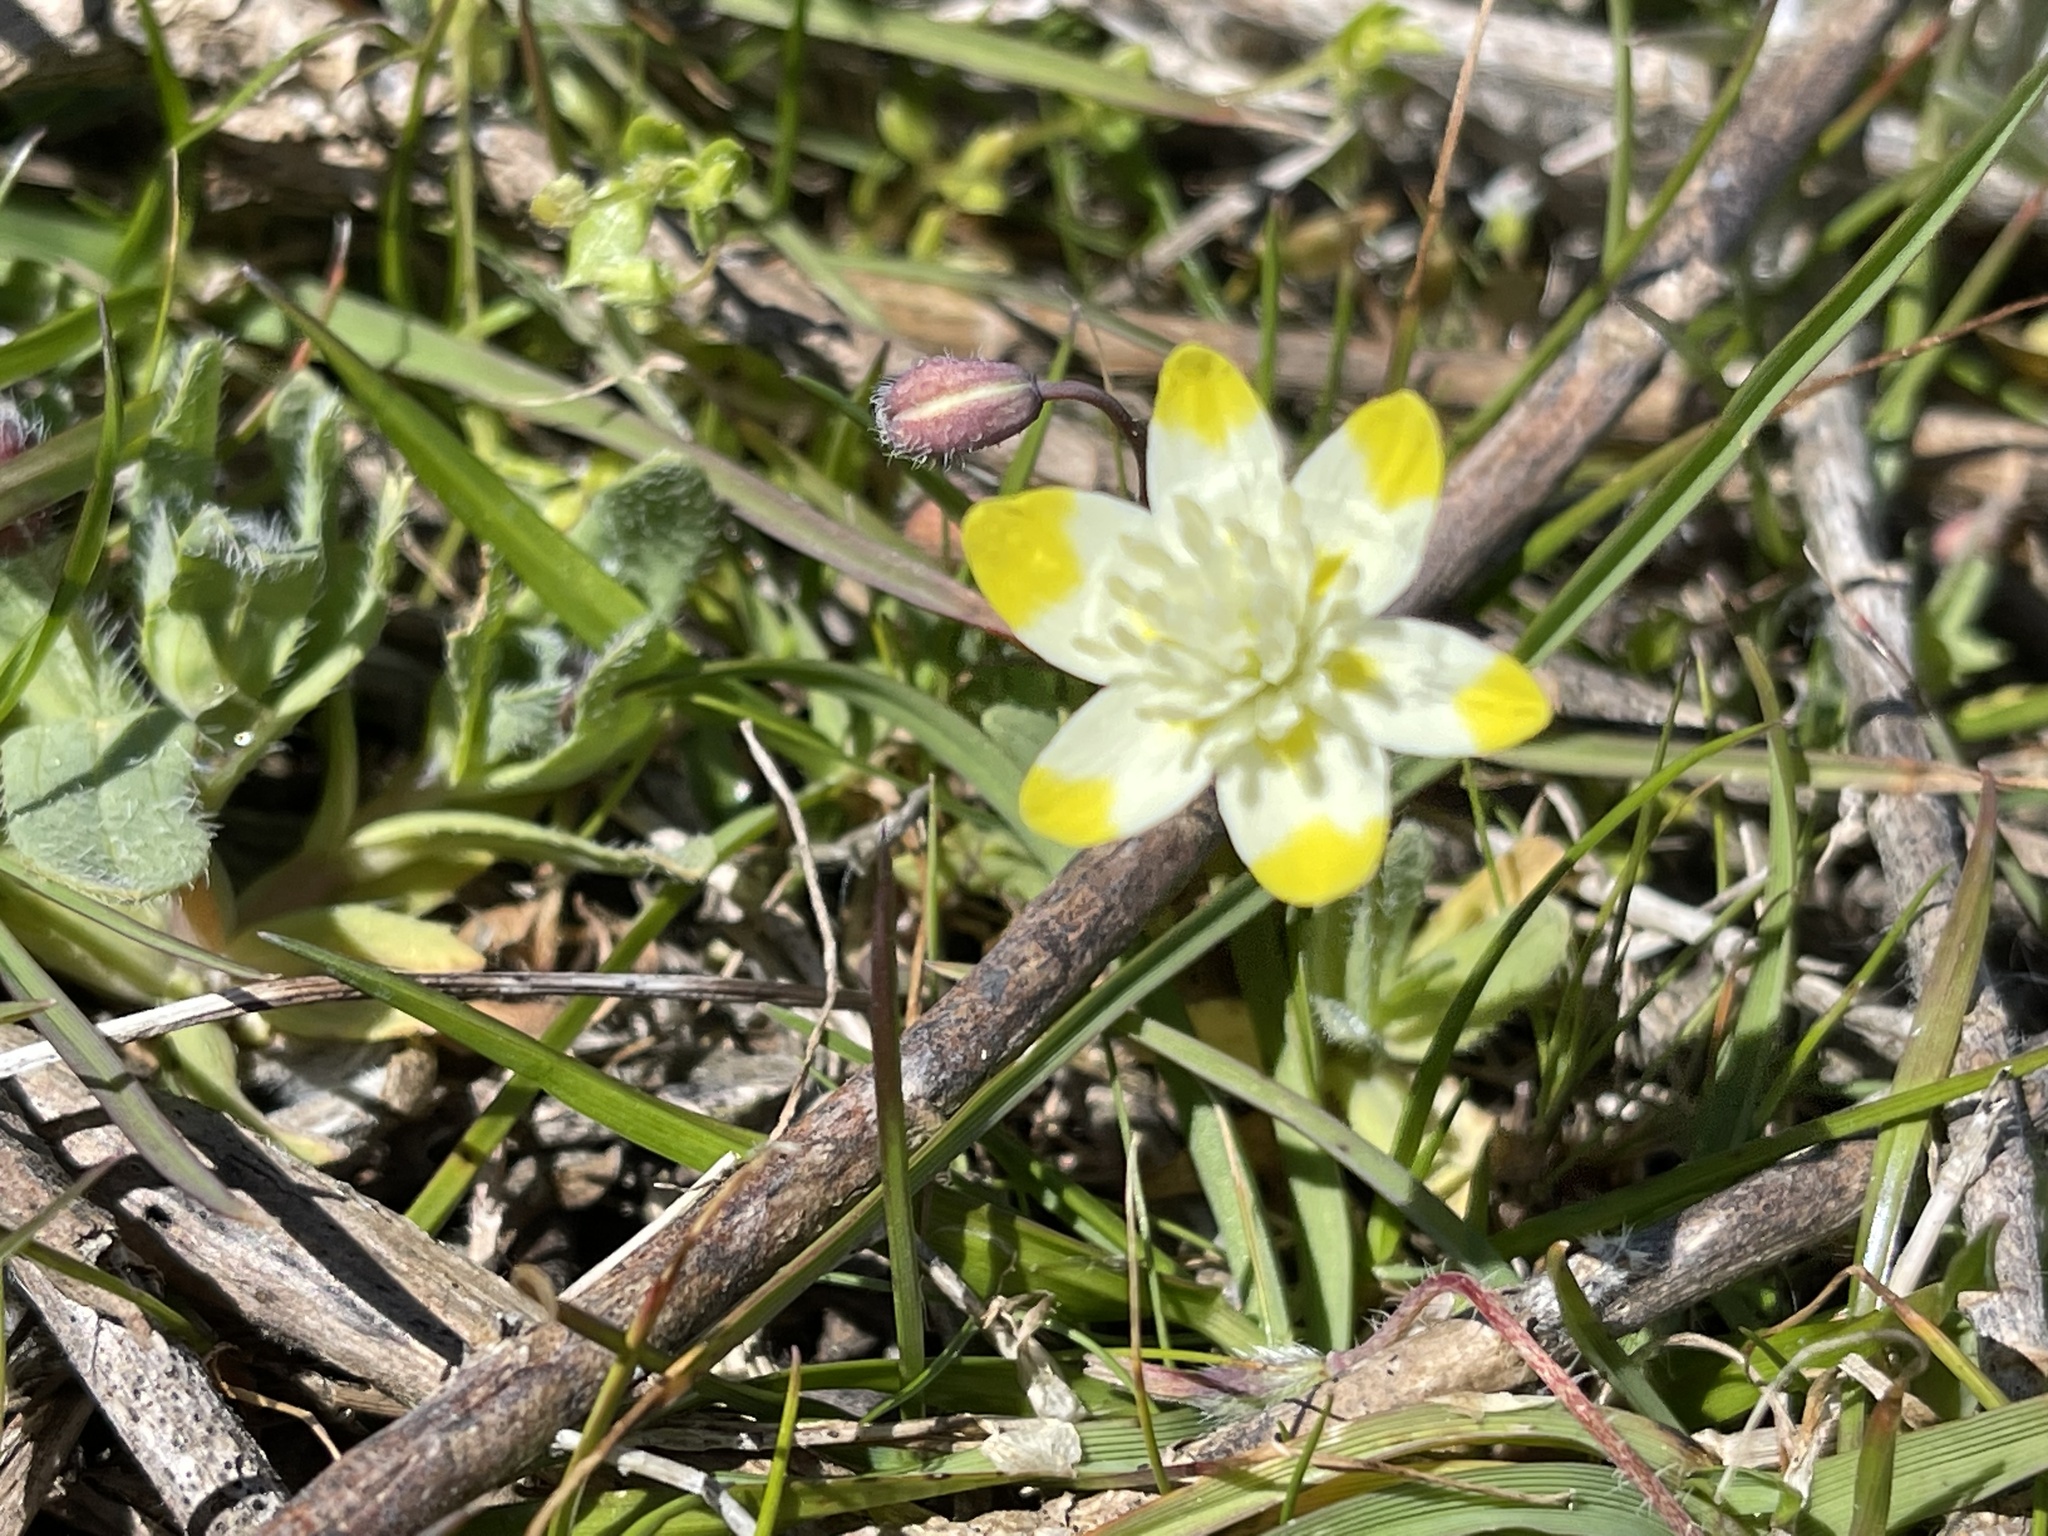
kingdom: Plantae
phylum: Tracheophyta
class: Magnoliopsida
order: Ranunculales
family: Papaveraceae
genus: Platystemon
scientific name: Platystemon californicus
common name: Cream-cups
